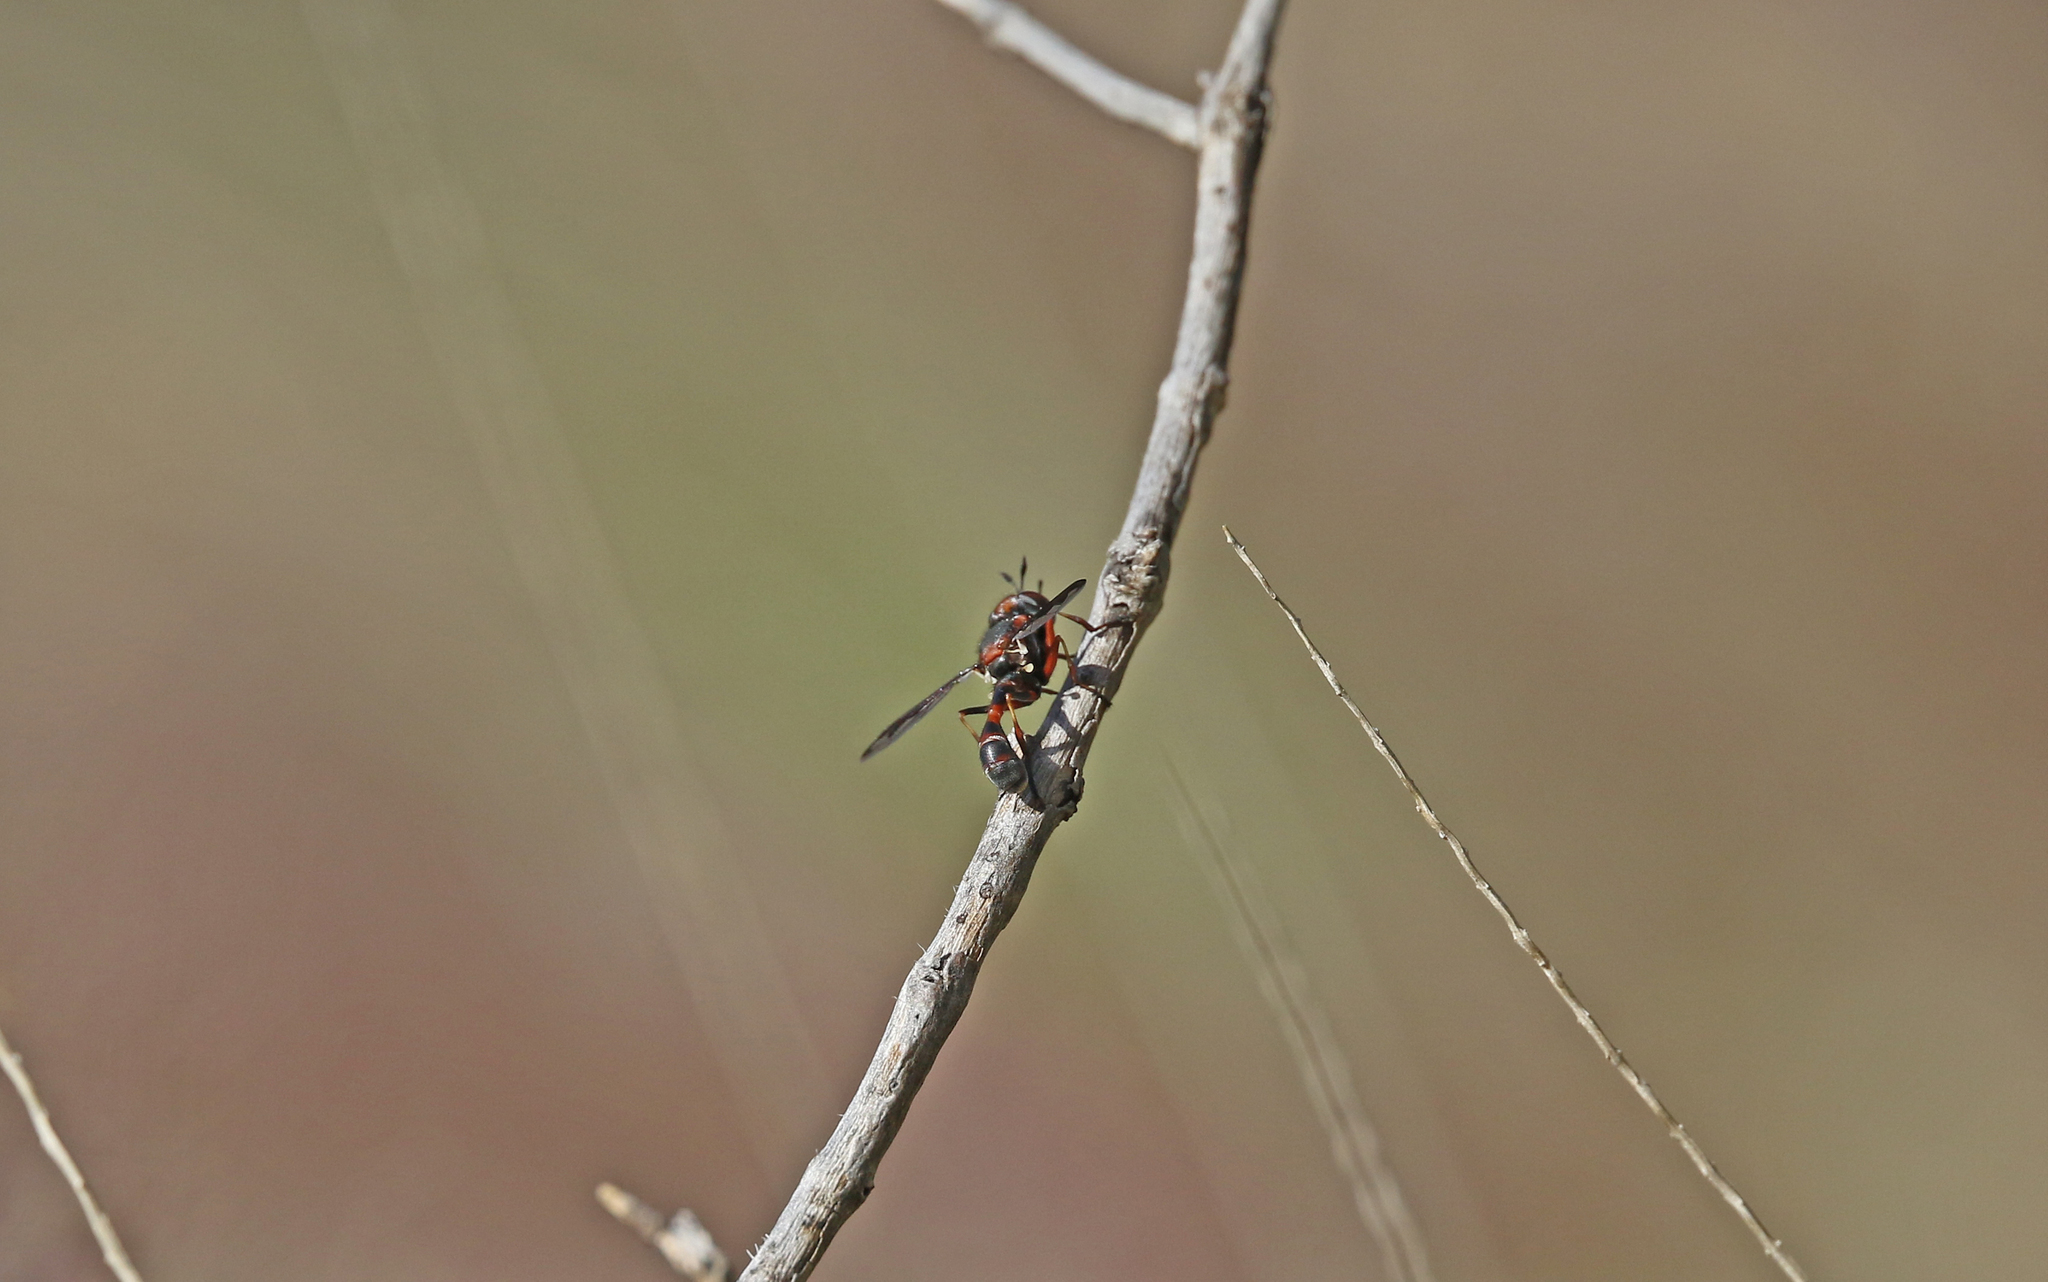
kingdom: Animalia
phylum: Arthropoda
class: Insecta
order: Diptera
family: Conopidae
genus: Physocephala
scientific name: Physocephala biguttata
